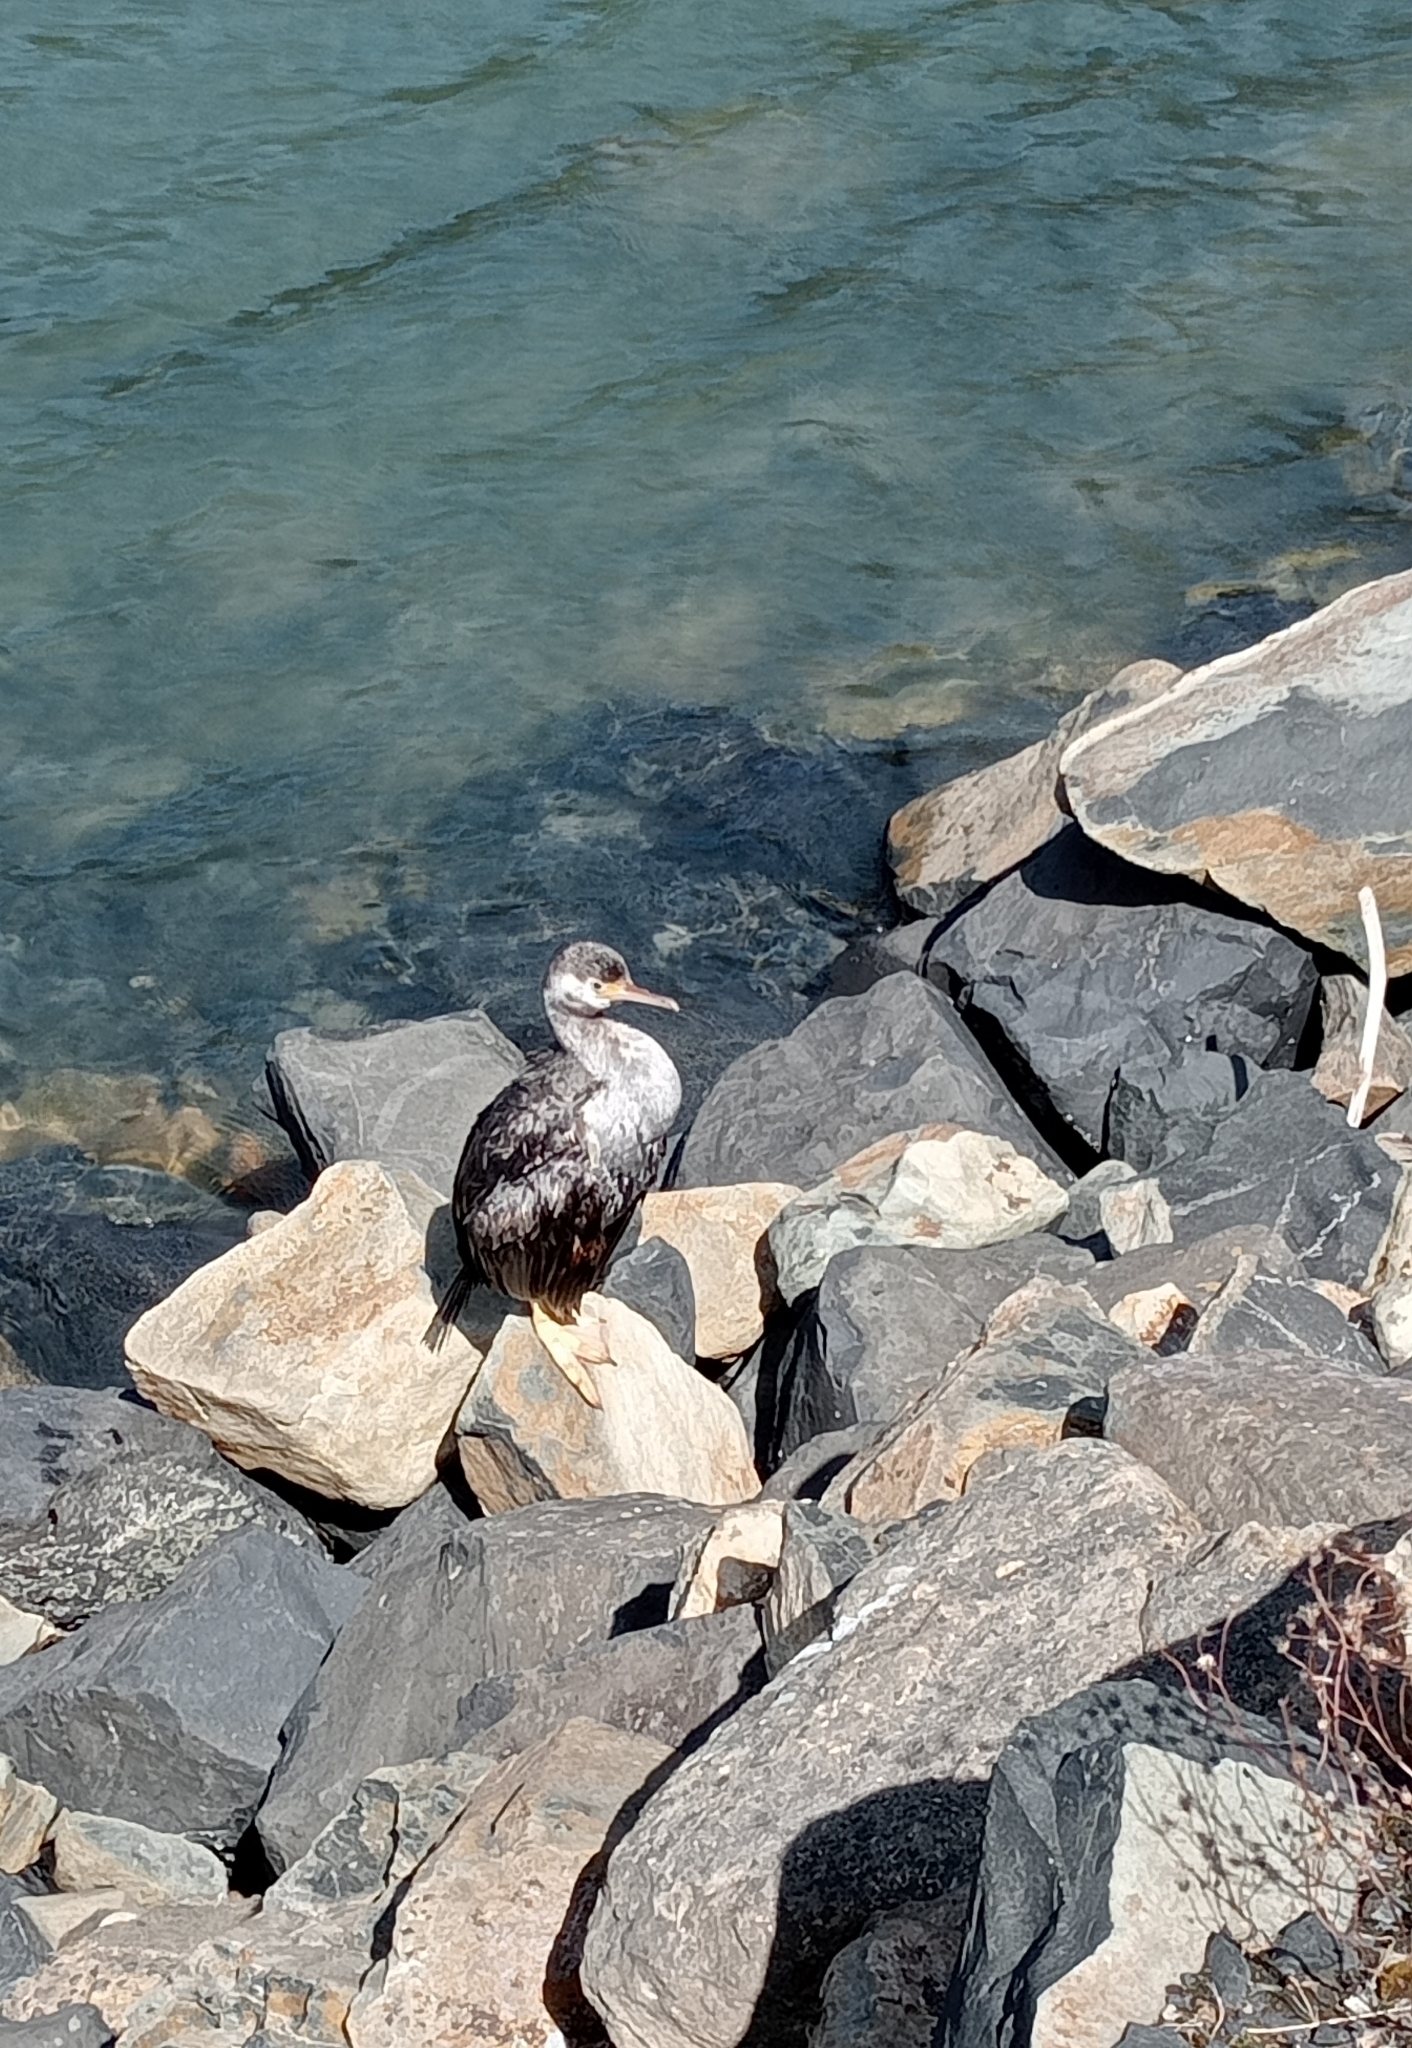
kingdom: Animalia
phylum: Chordata
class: Aves
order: Suliformes
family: Phalacrocoracidae
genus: Phalacrocorax
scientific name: Phalacrocorax punctatus
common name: Spotted shag
